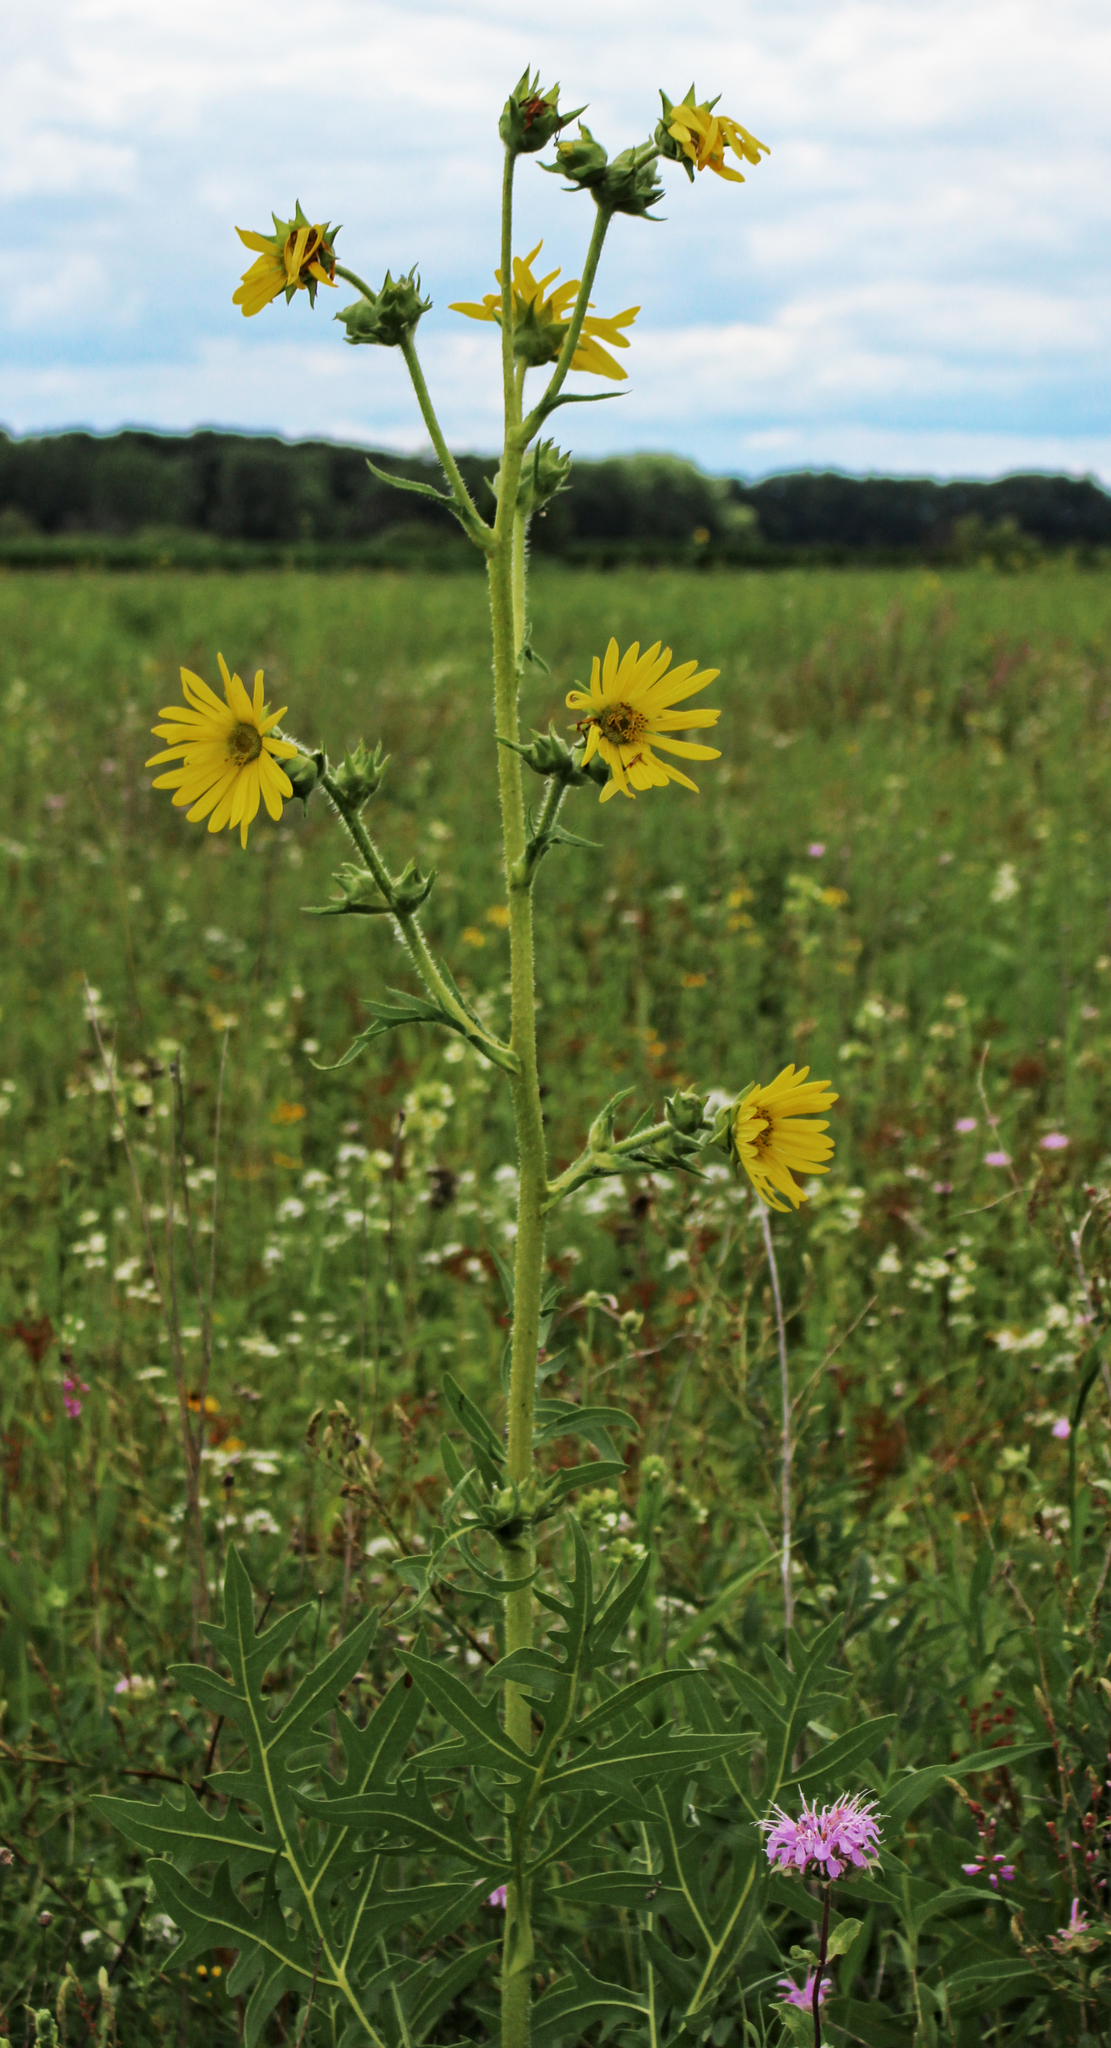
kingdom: Plantae
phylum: Tracheophyta
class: Magnoliopsida
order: Asterales
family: Asteraceae
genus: Silphium
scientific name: Silphium laciniatum
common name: Polarplant
